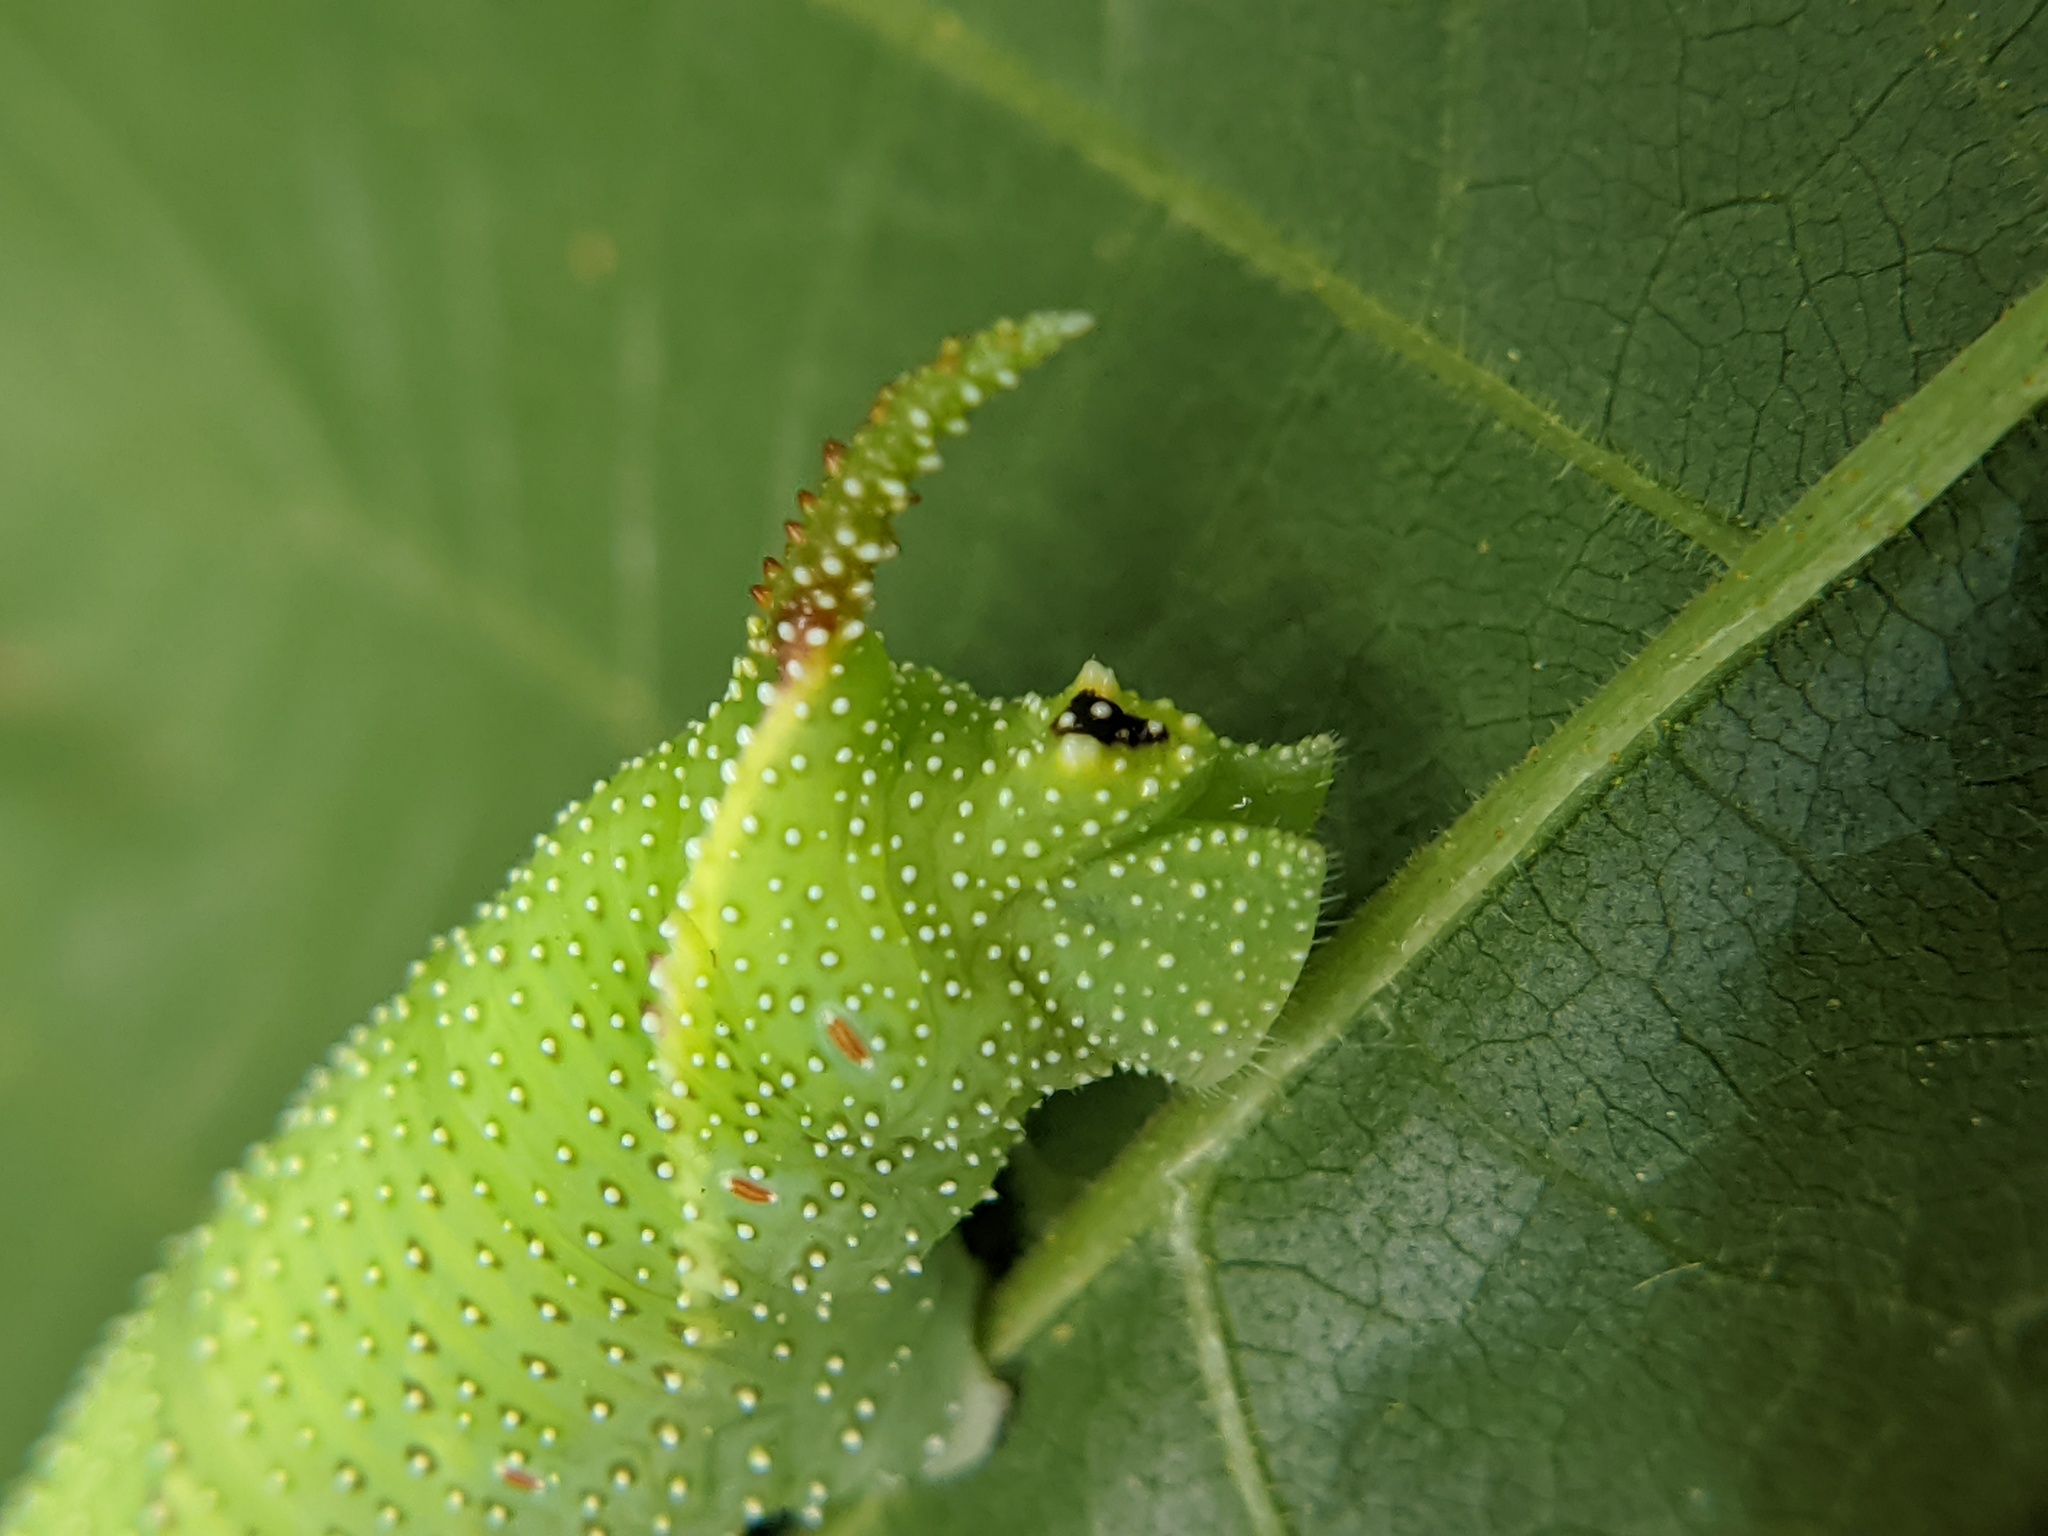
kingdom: Animalia
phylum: Arthropoda
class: Insecta
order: Lepidoptera
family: Sphingidae
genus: Amorpha
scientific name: Amorpha juglandis
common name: Walnut sphinx
